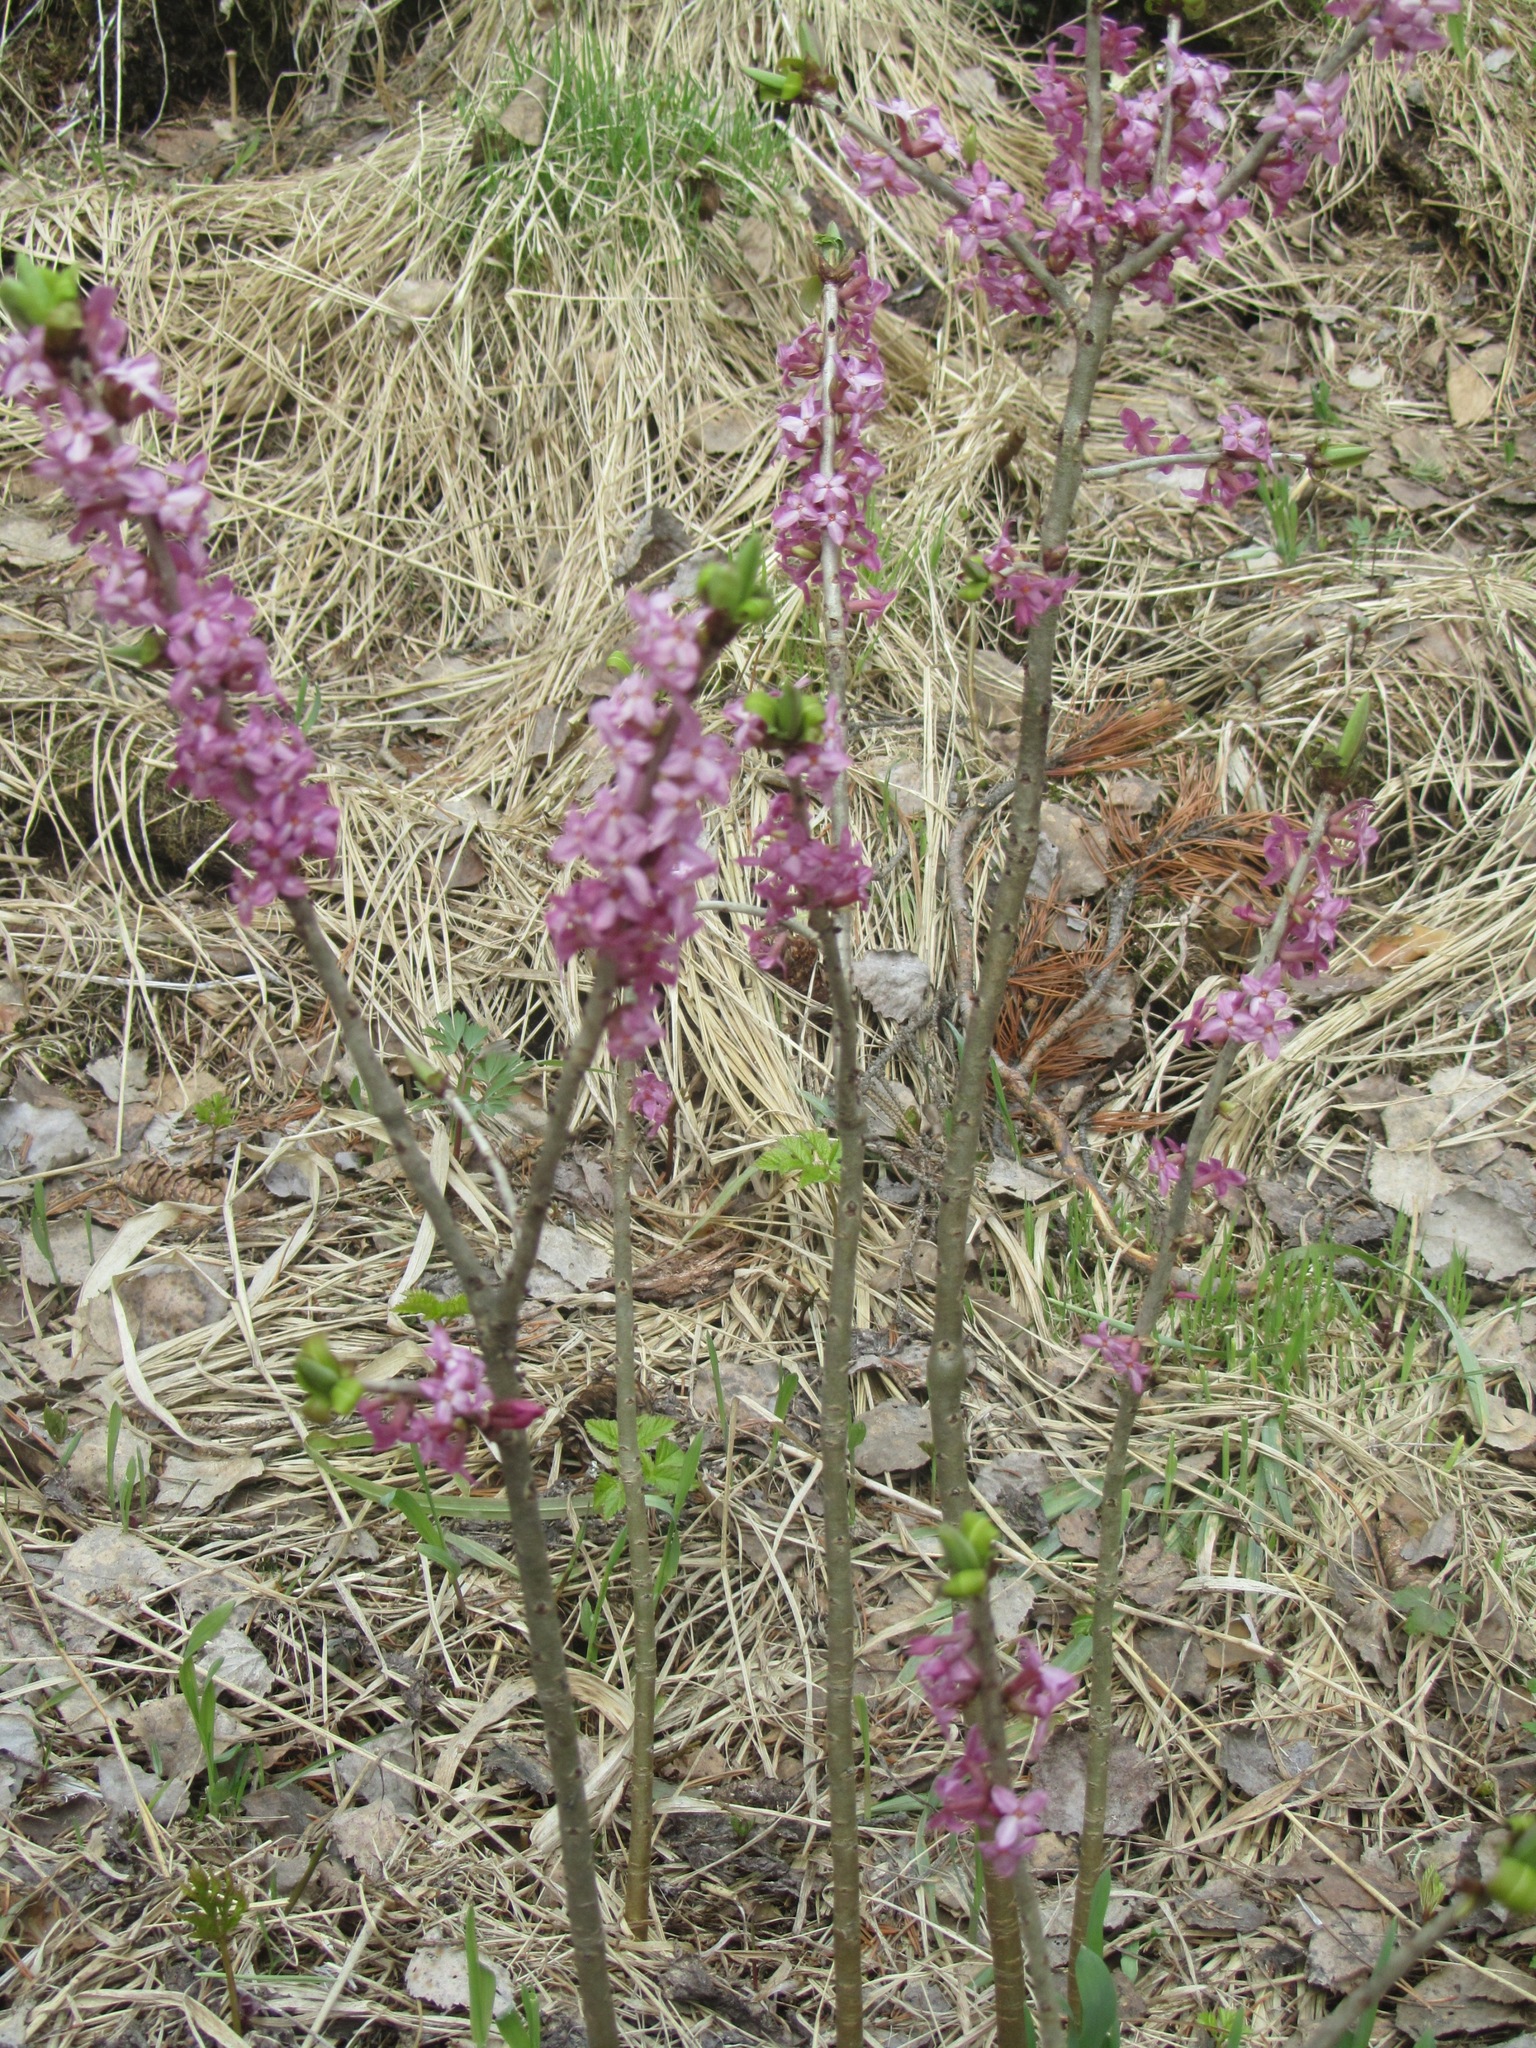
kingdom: Plantae
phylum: Tracheophyta
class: Magnoliopsida
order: Malvales
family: Thymelaeaceae
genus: Daphne
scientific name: Daphne mezereum
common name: Mezereon
